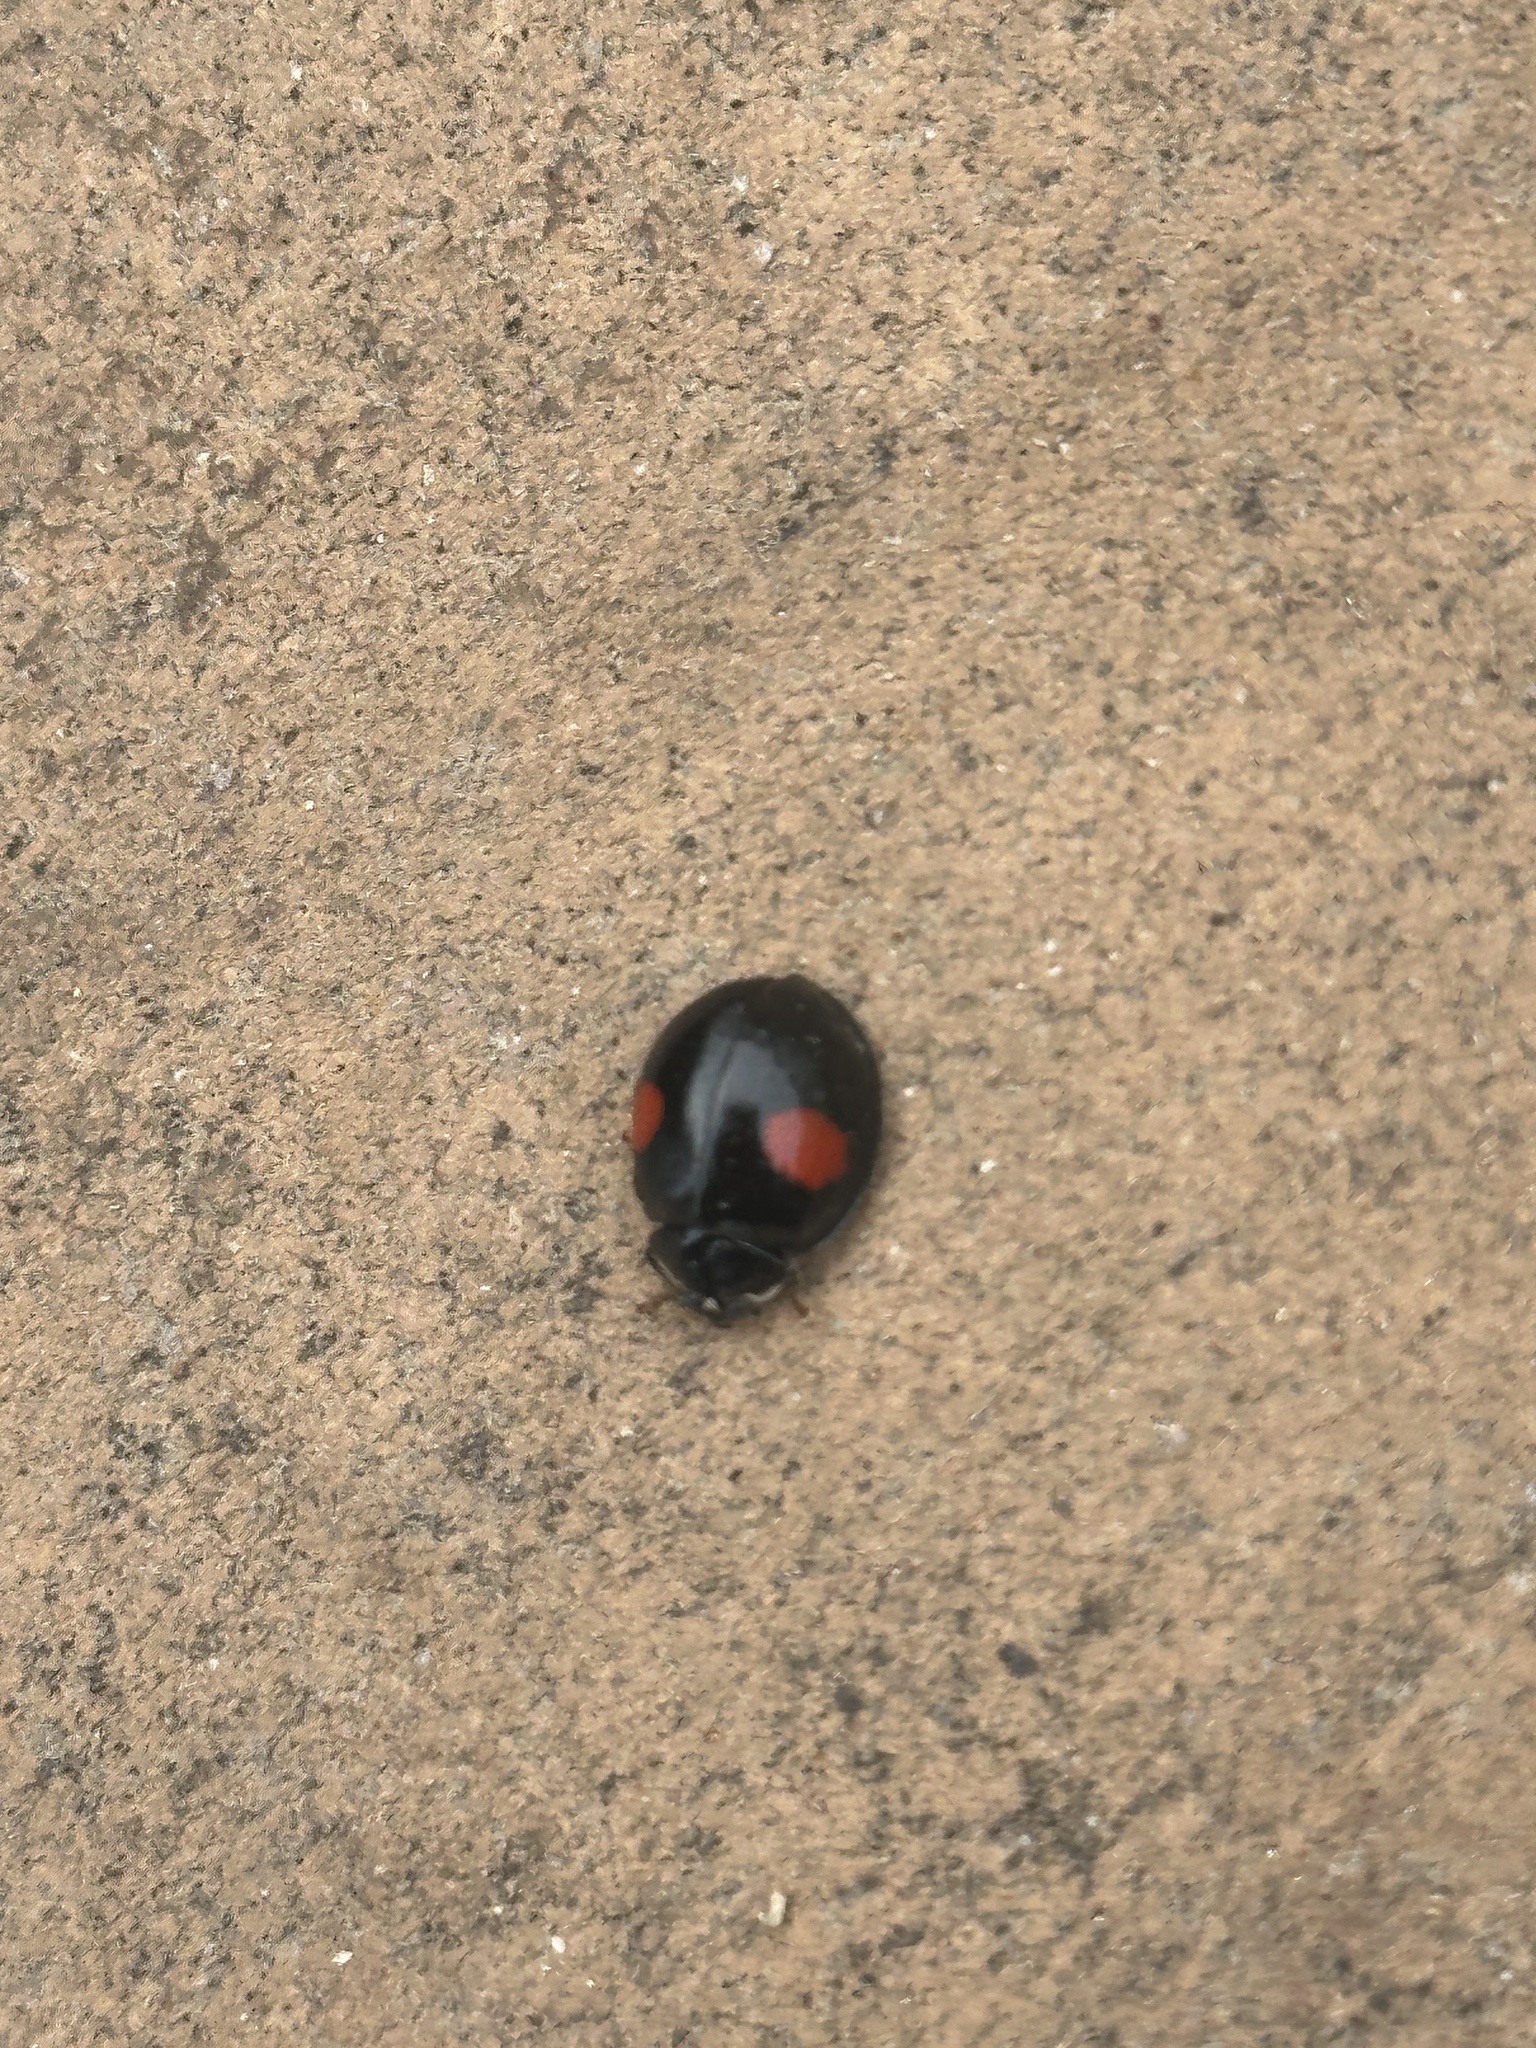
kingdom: Animalia
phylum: Arthropoda
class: Insecta
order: Coleoptera
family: Coccinellidae
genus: Harmonia
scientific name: Harmonia axyridis
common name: Harlequin ladybird
